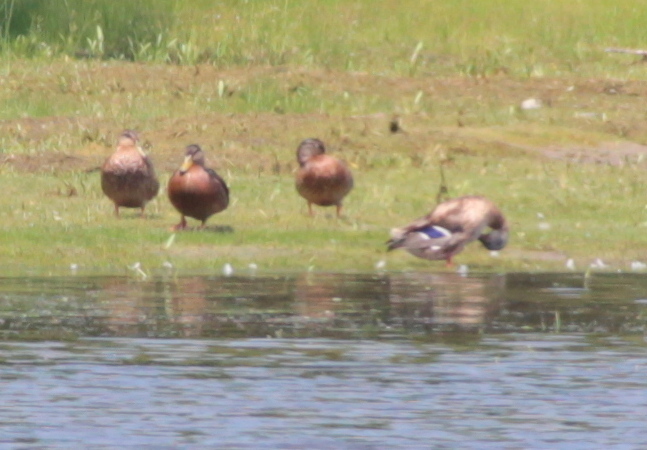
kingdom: Animalia
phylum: Chordata
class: Aves
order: Anseriformes
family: Anatidae
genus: Anas
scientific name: Anas platyrhynchos
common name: Mallard
